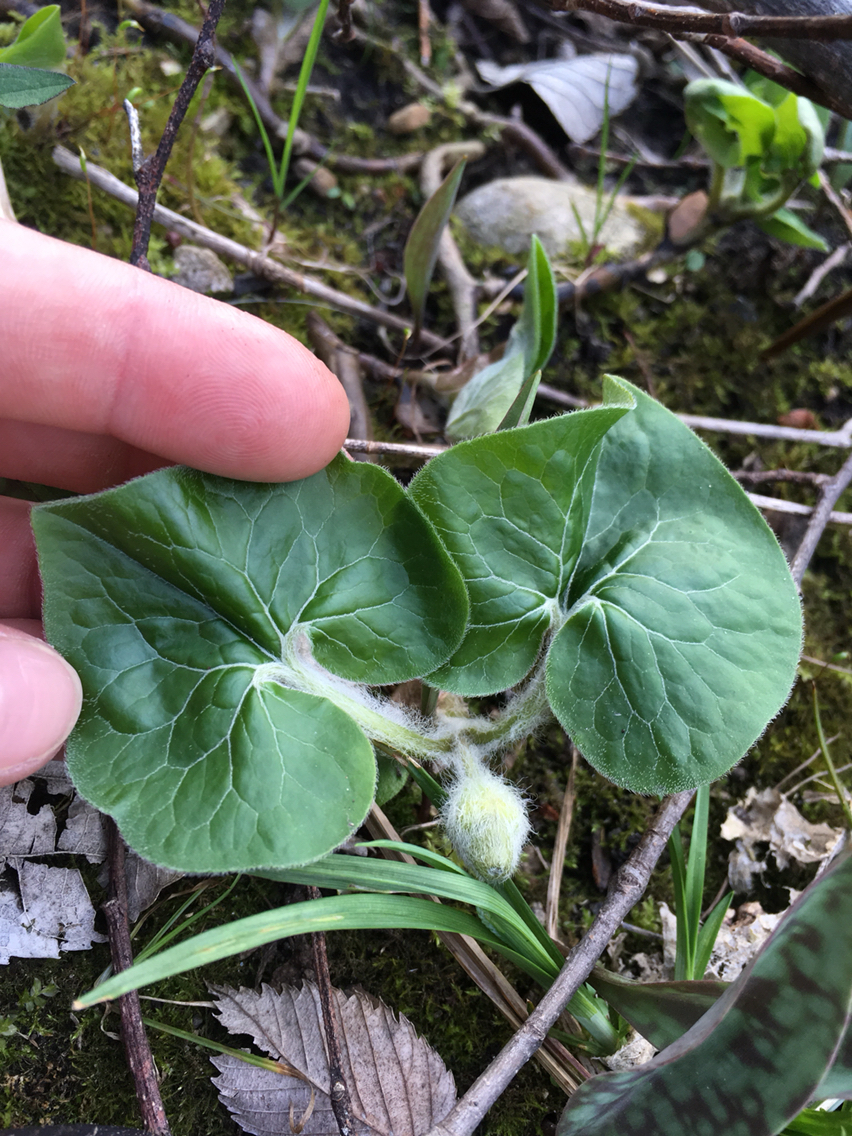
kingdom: Plantae
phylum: Tracheophyta
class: Magnoliopsida
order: Piperales
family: Aristolochiaceae
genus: Asarum
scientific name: Asarum canadense
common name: Wild ginger
